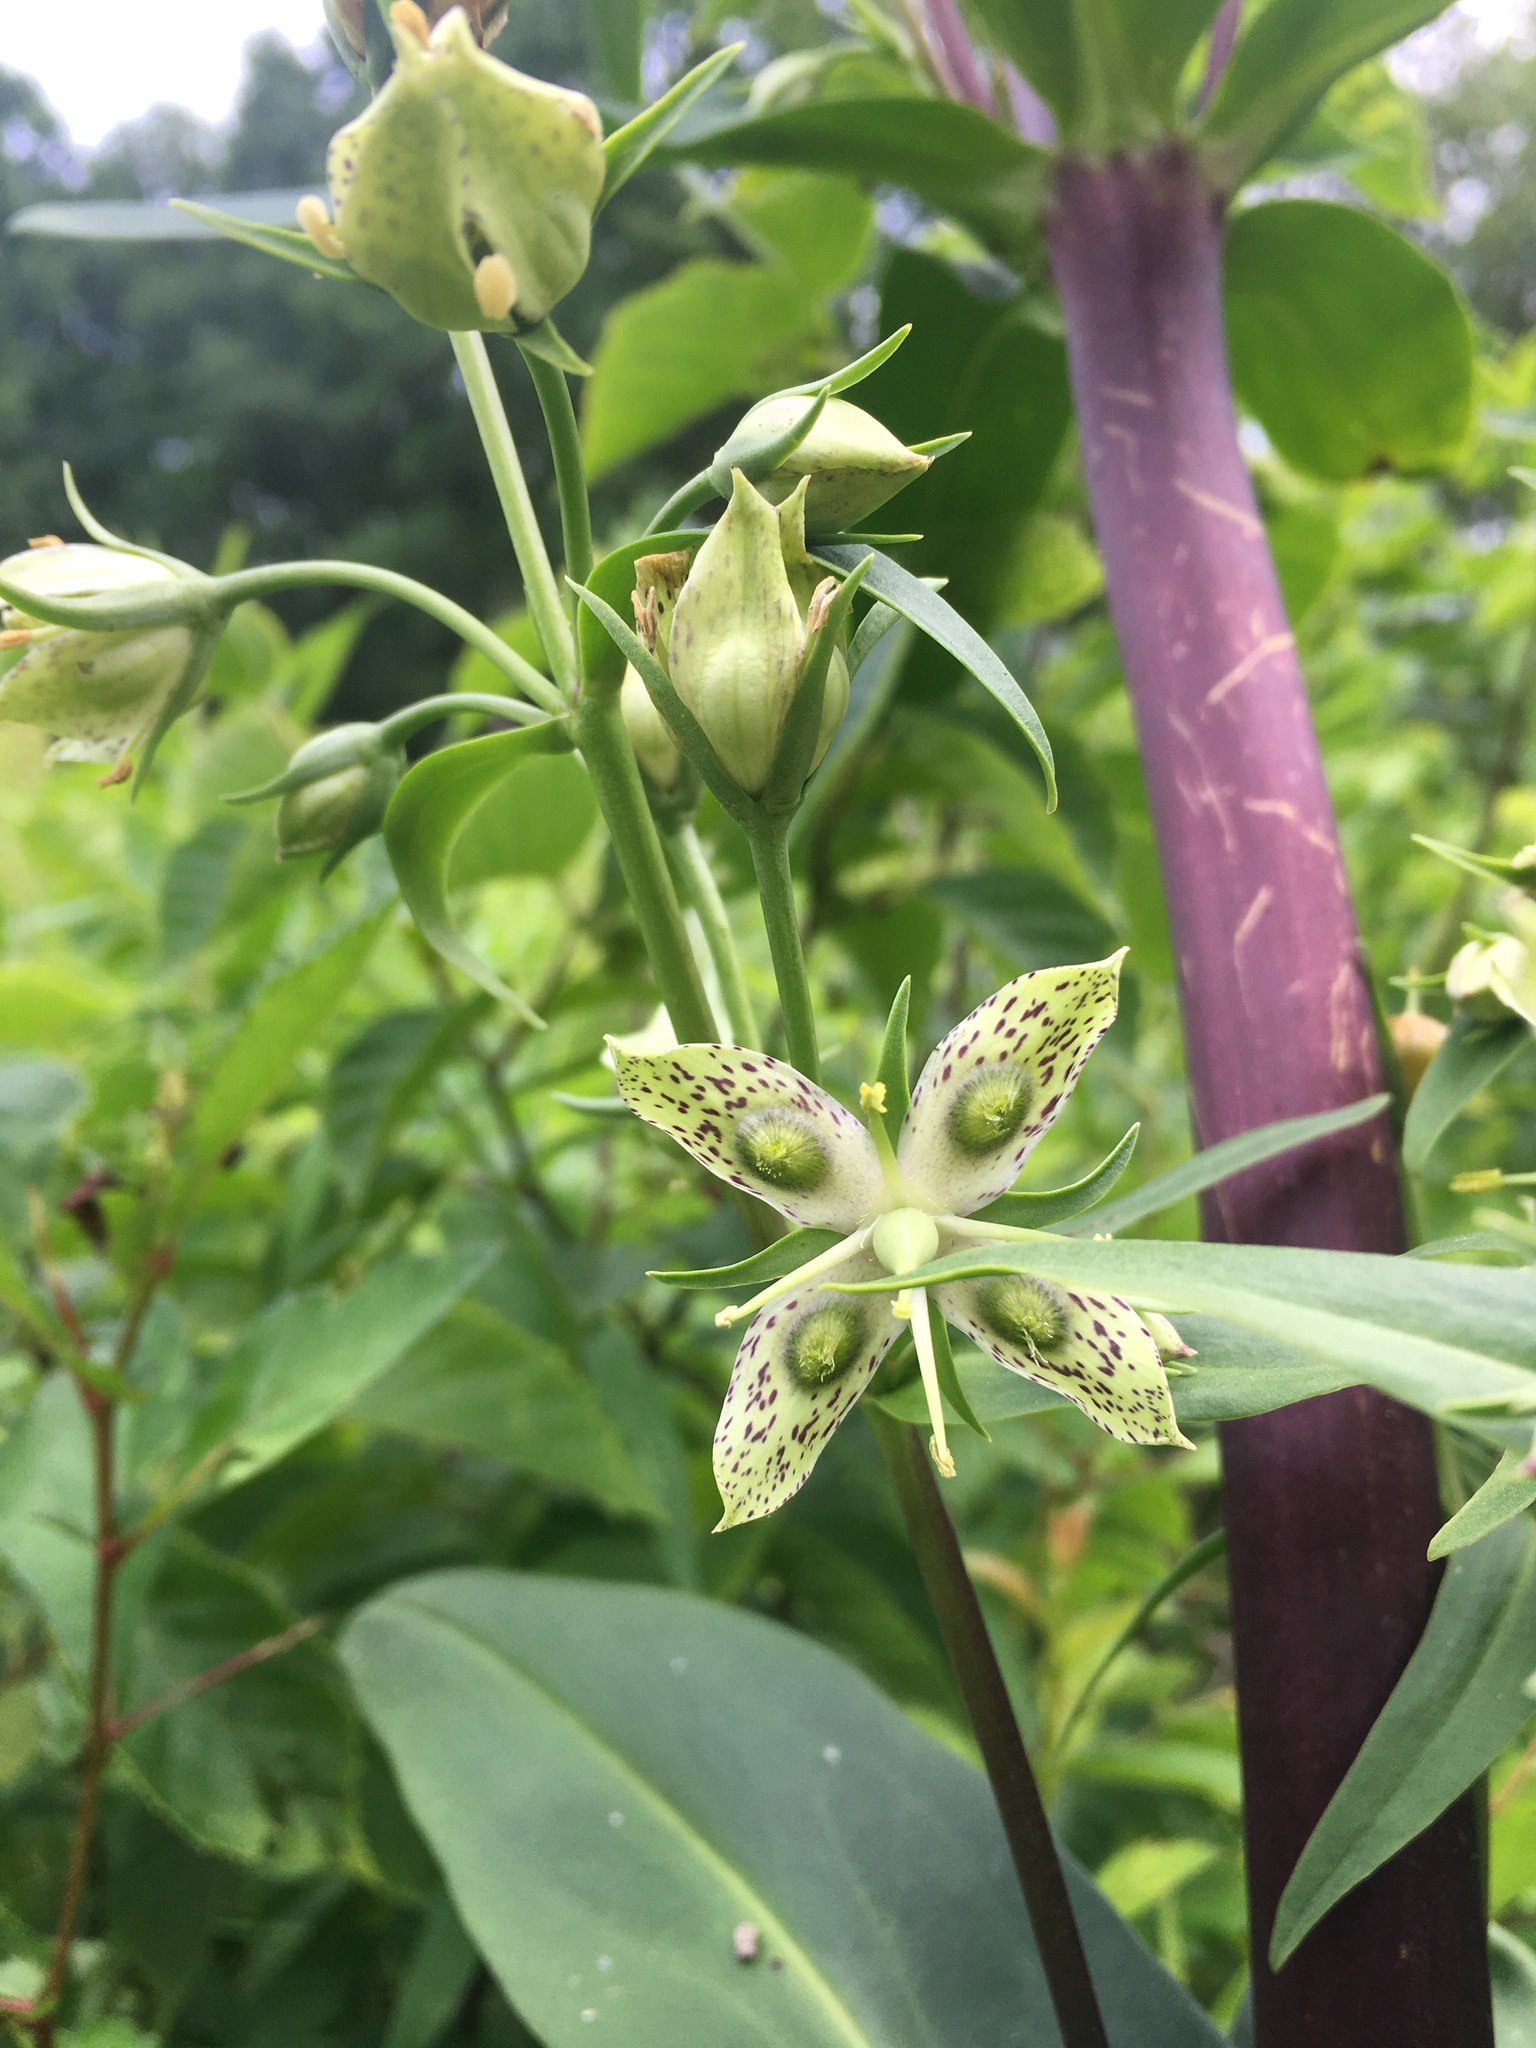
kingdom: Plantae
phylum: Tracheophyta
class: Magnoliopsida
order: Gentianales
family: Gentianaceae
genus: Frasera
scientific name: Frasera caroliniensis
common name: American columbo
